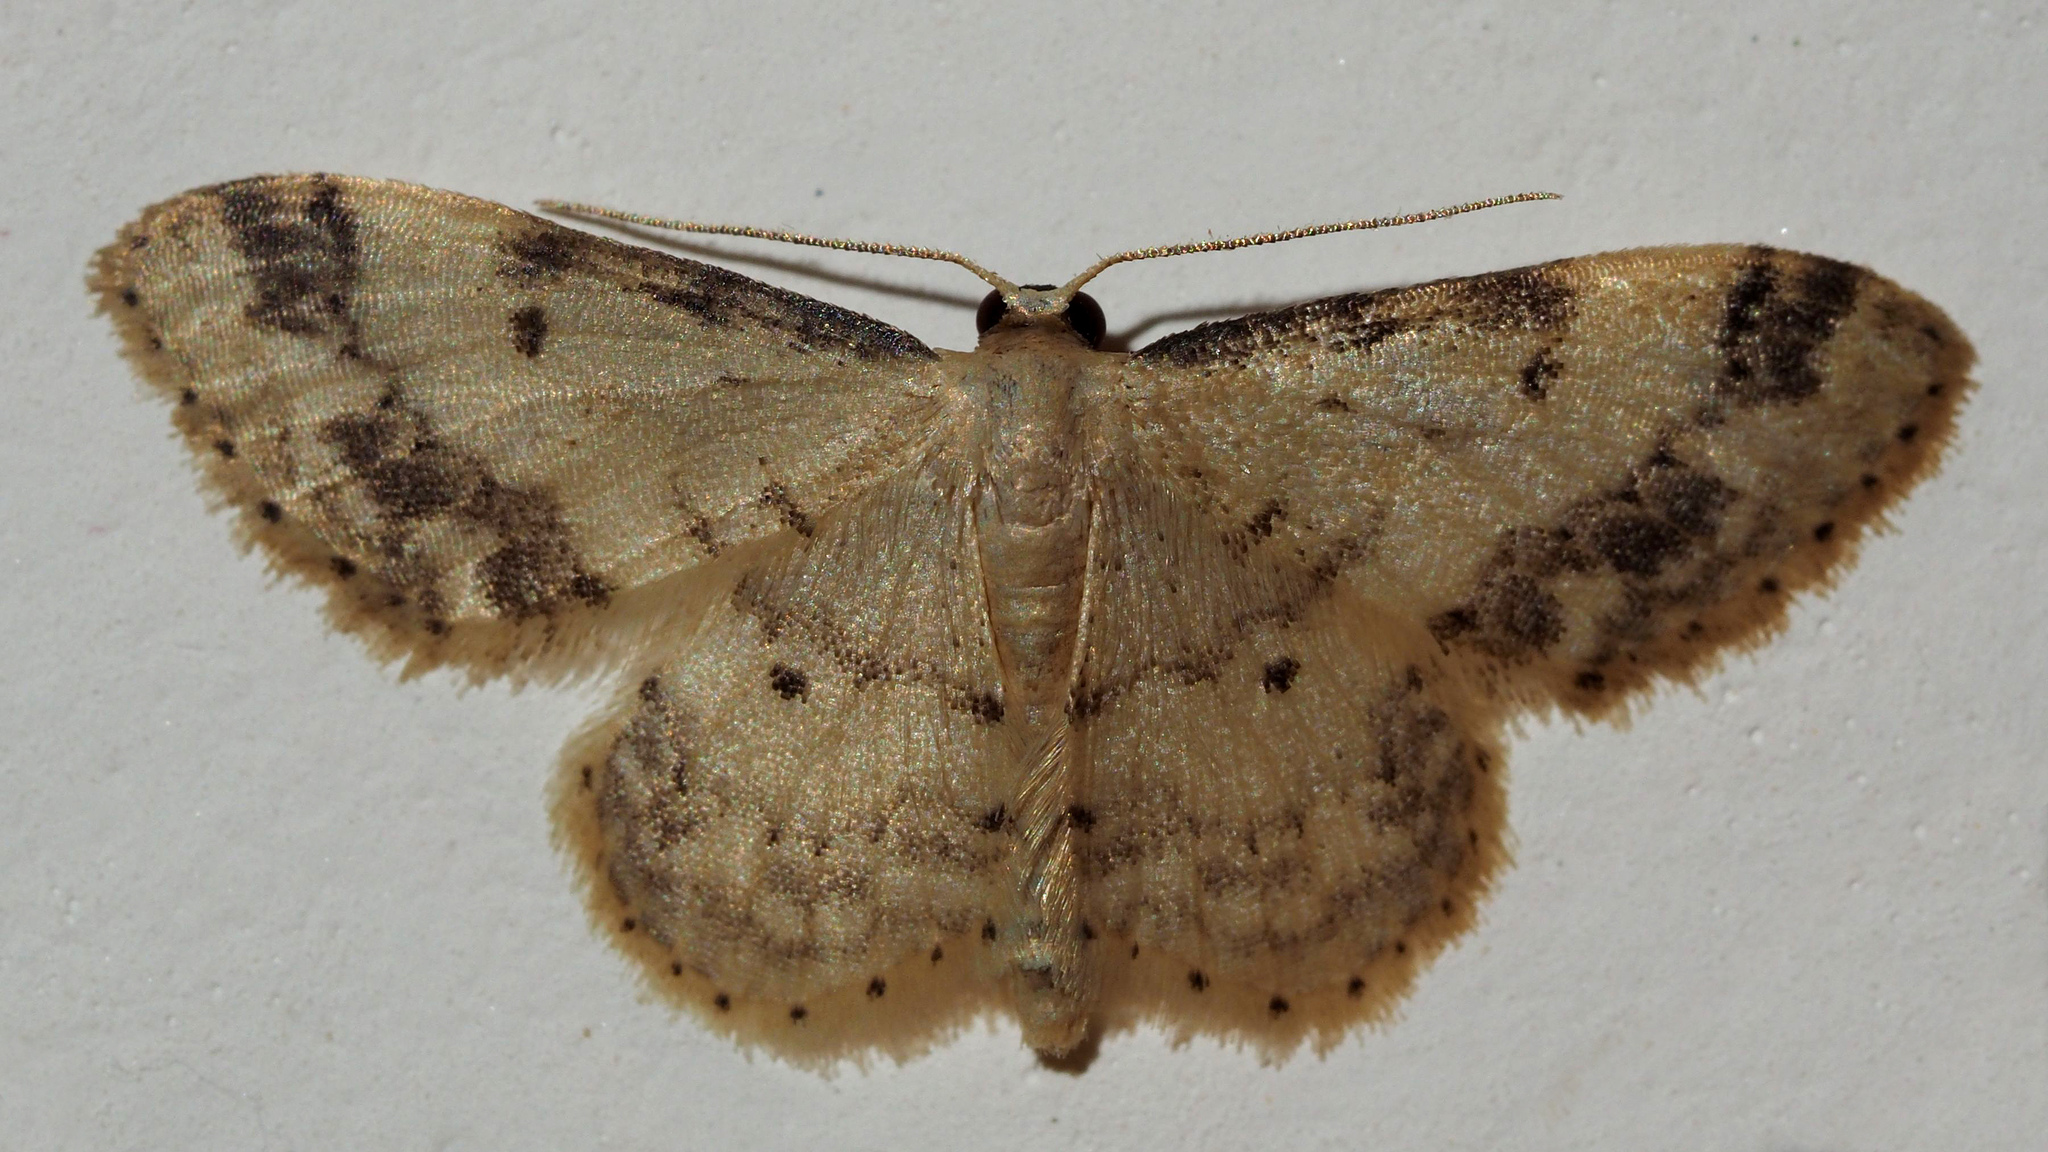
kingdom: Animalia
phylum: Arthropoda
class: Insecta
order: Lepidoptera
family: Geometridae
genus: Idaea
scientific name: Idaea trigeminata
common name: Treble brown spot
